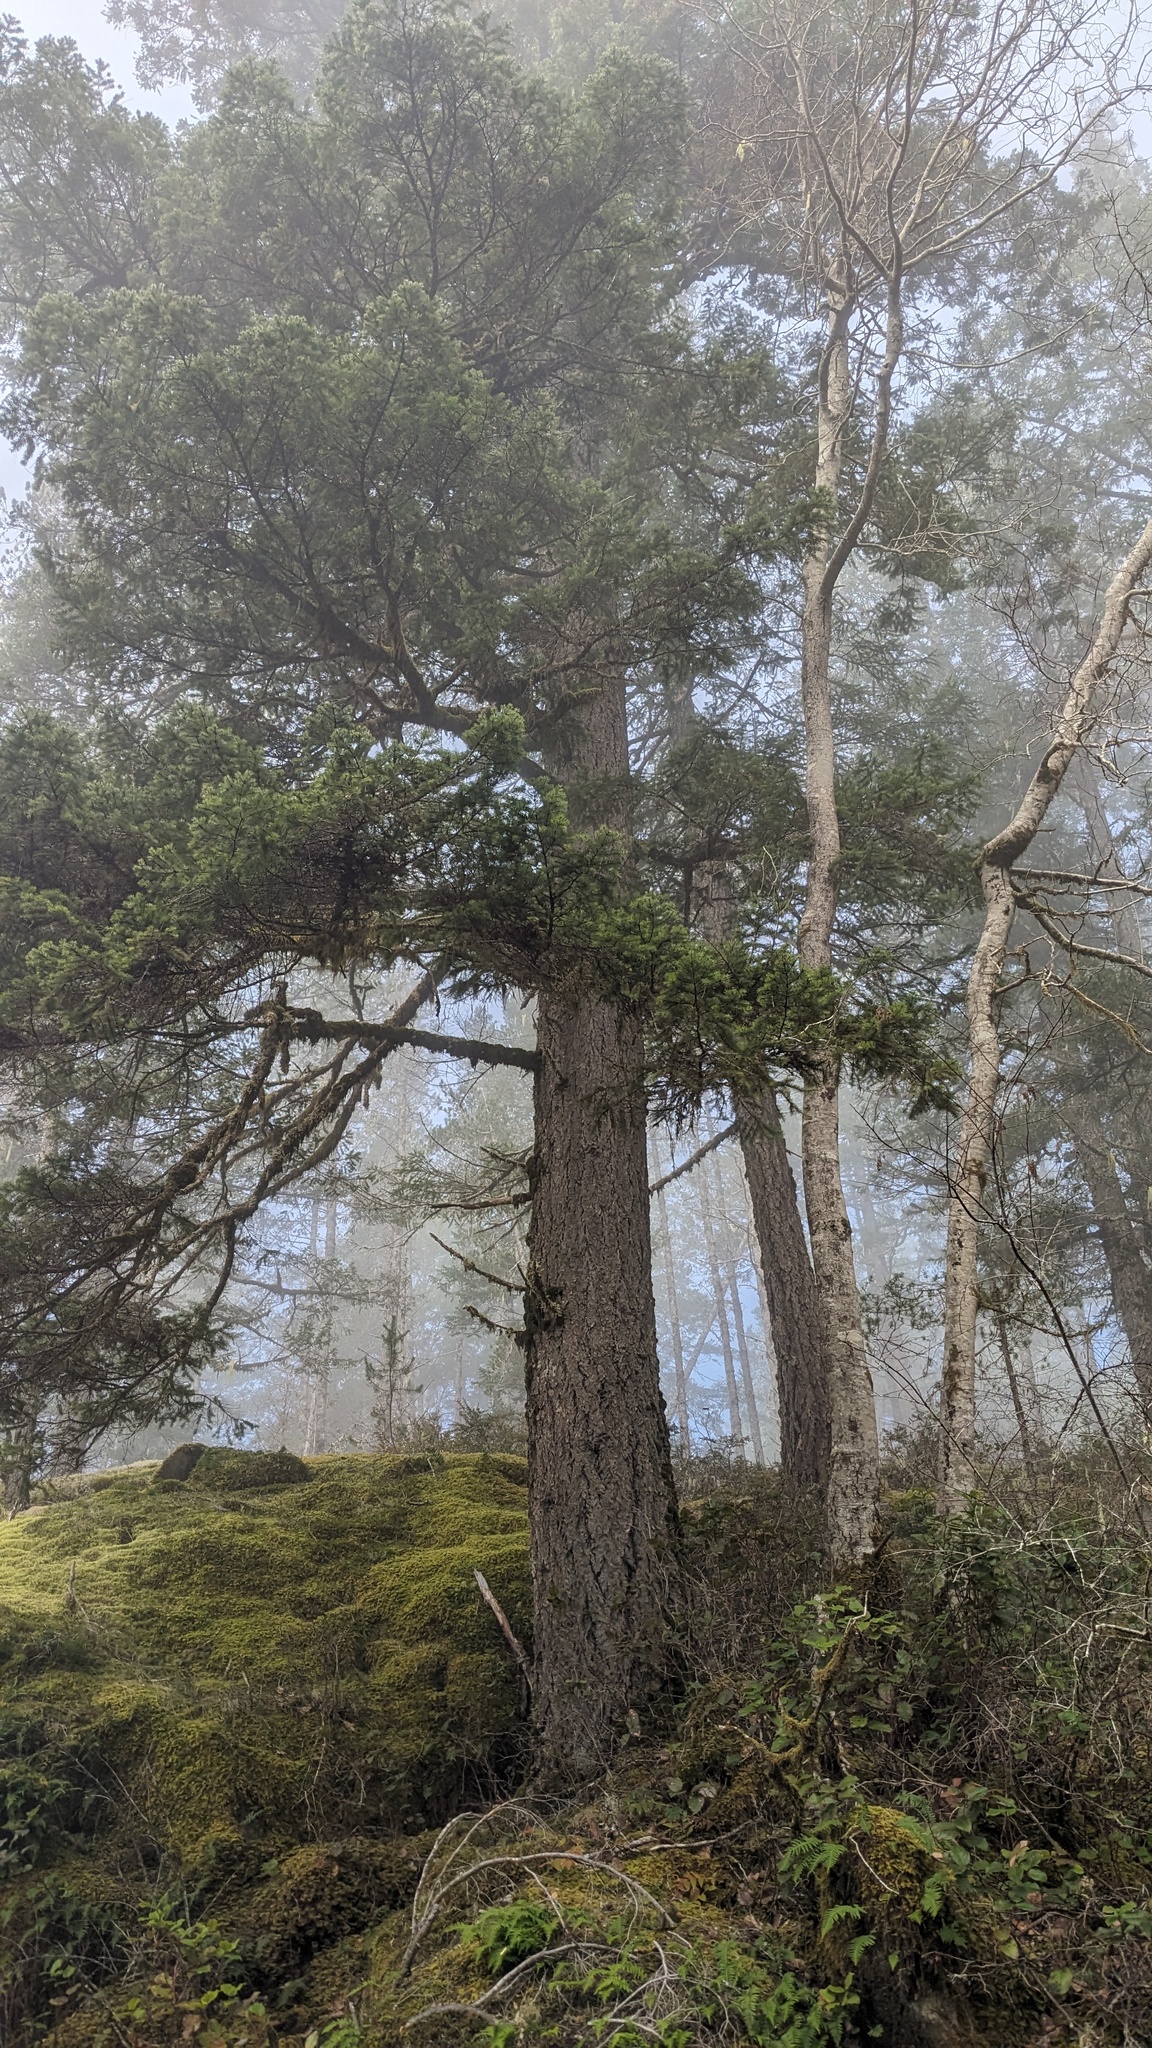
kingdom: Plantae
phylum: Tracheophyta
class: Pinopsida
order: Pinales
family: Pinaceae
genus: Pseudotsuga
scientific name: Pseudotsuga menziesii
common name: Douglas fir
